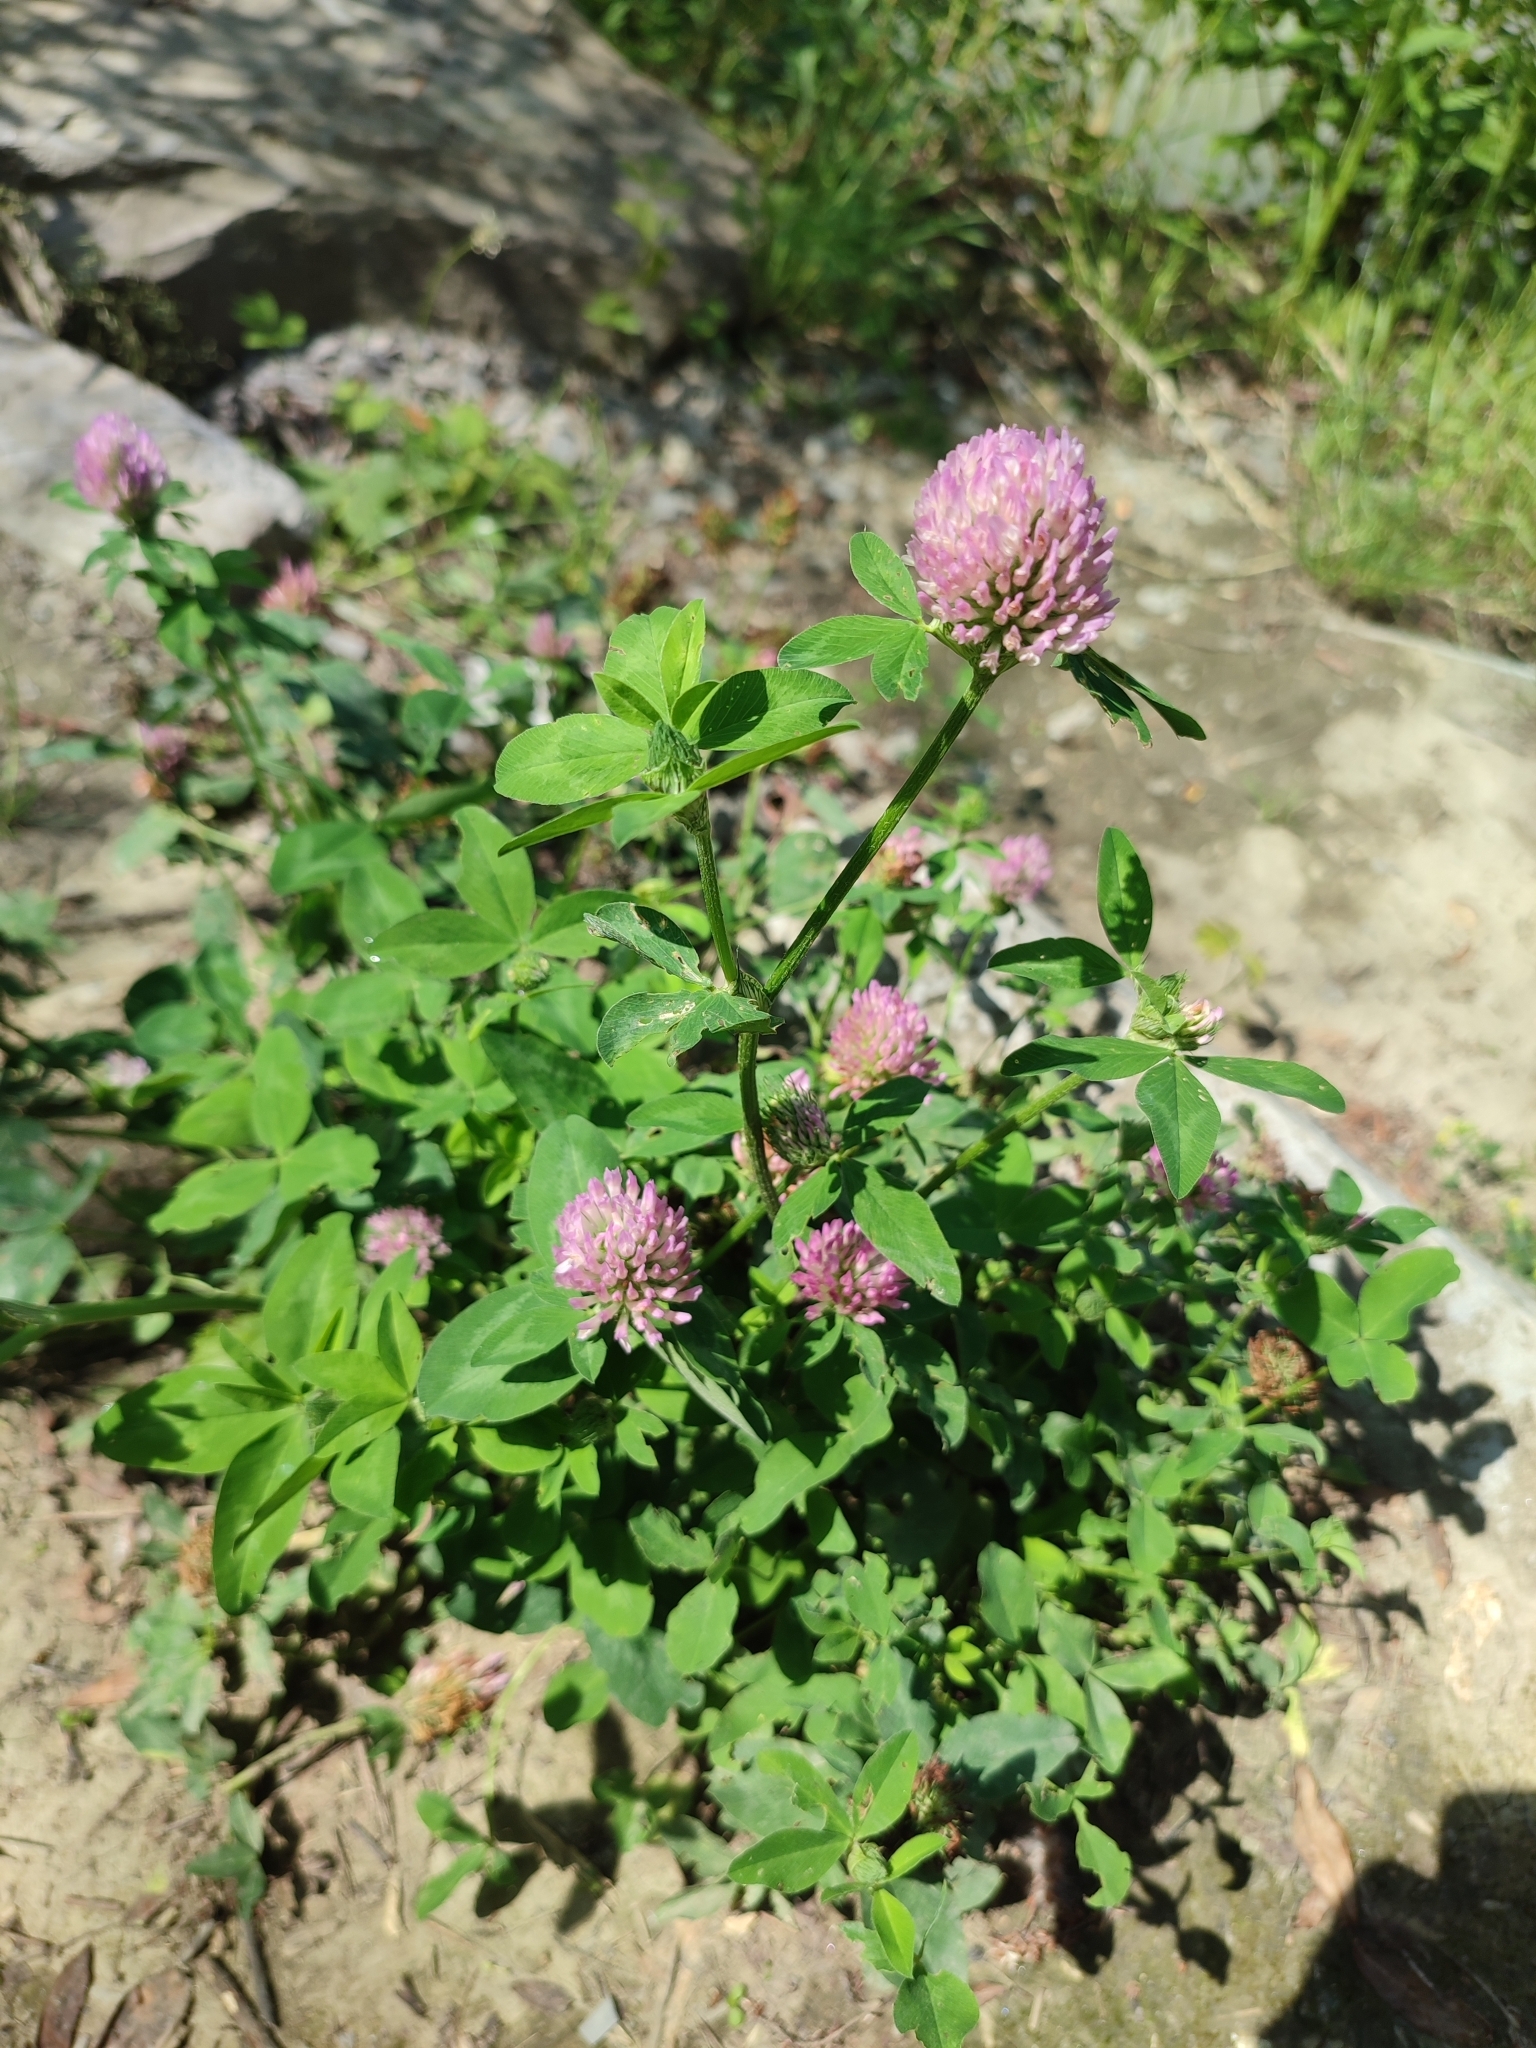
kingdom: Plantae
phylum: Tracheophyta
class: Magnoliopsida
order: Fabales
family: Fabaceae
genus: Trifolium
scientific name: Trifolium pratense
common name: Red clover
